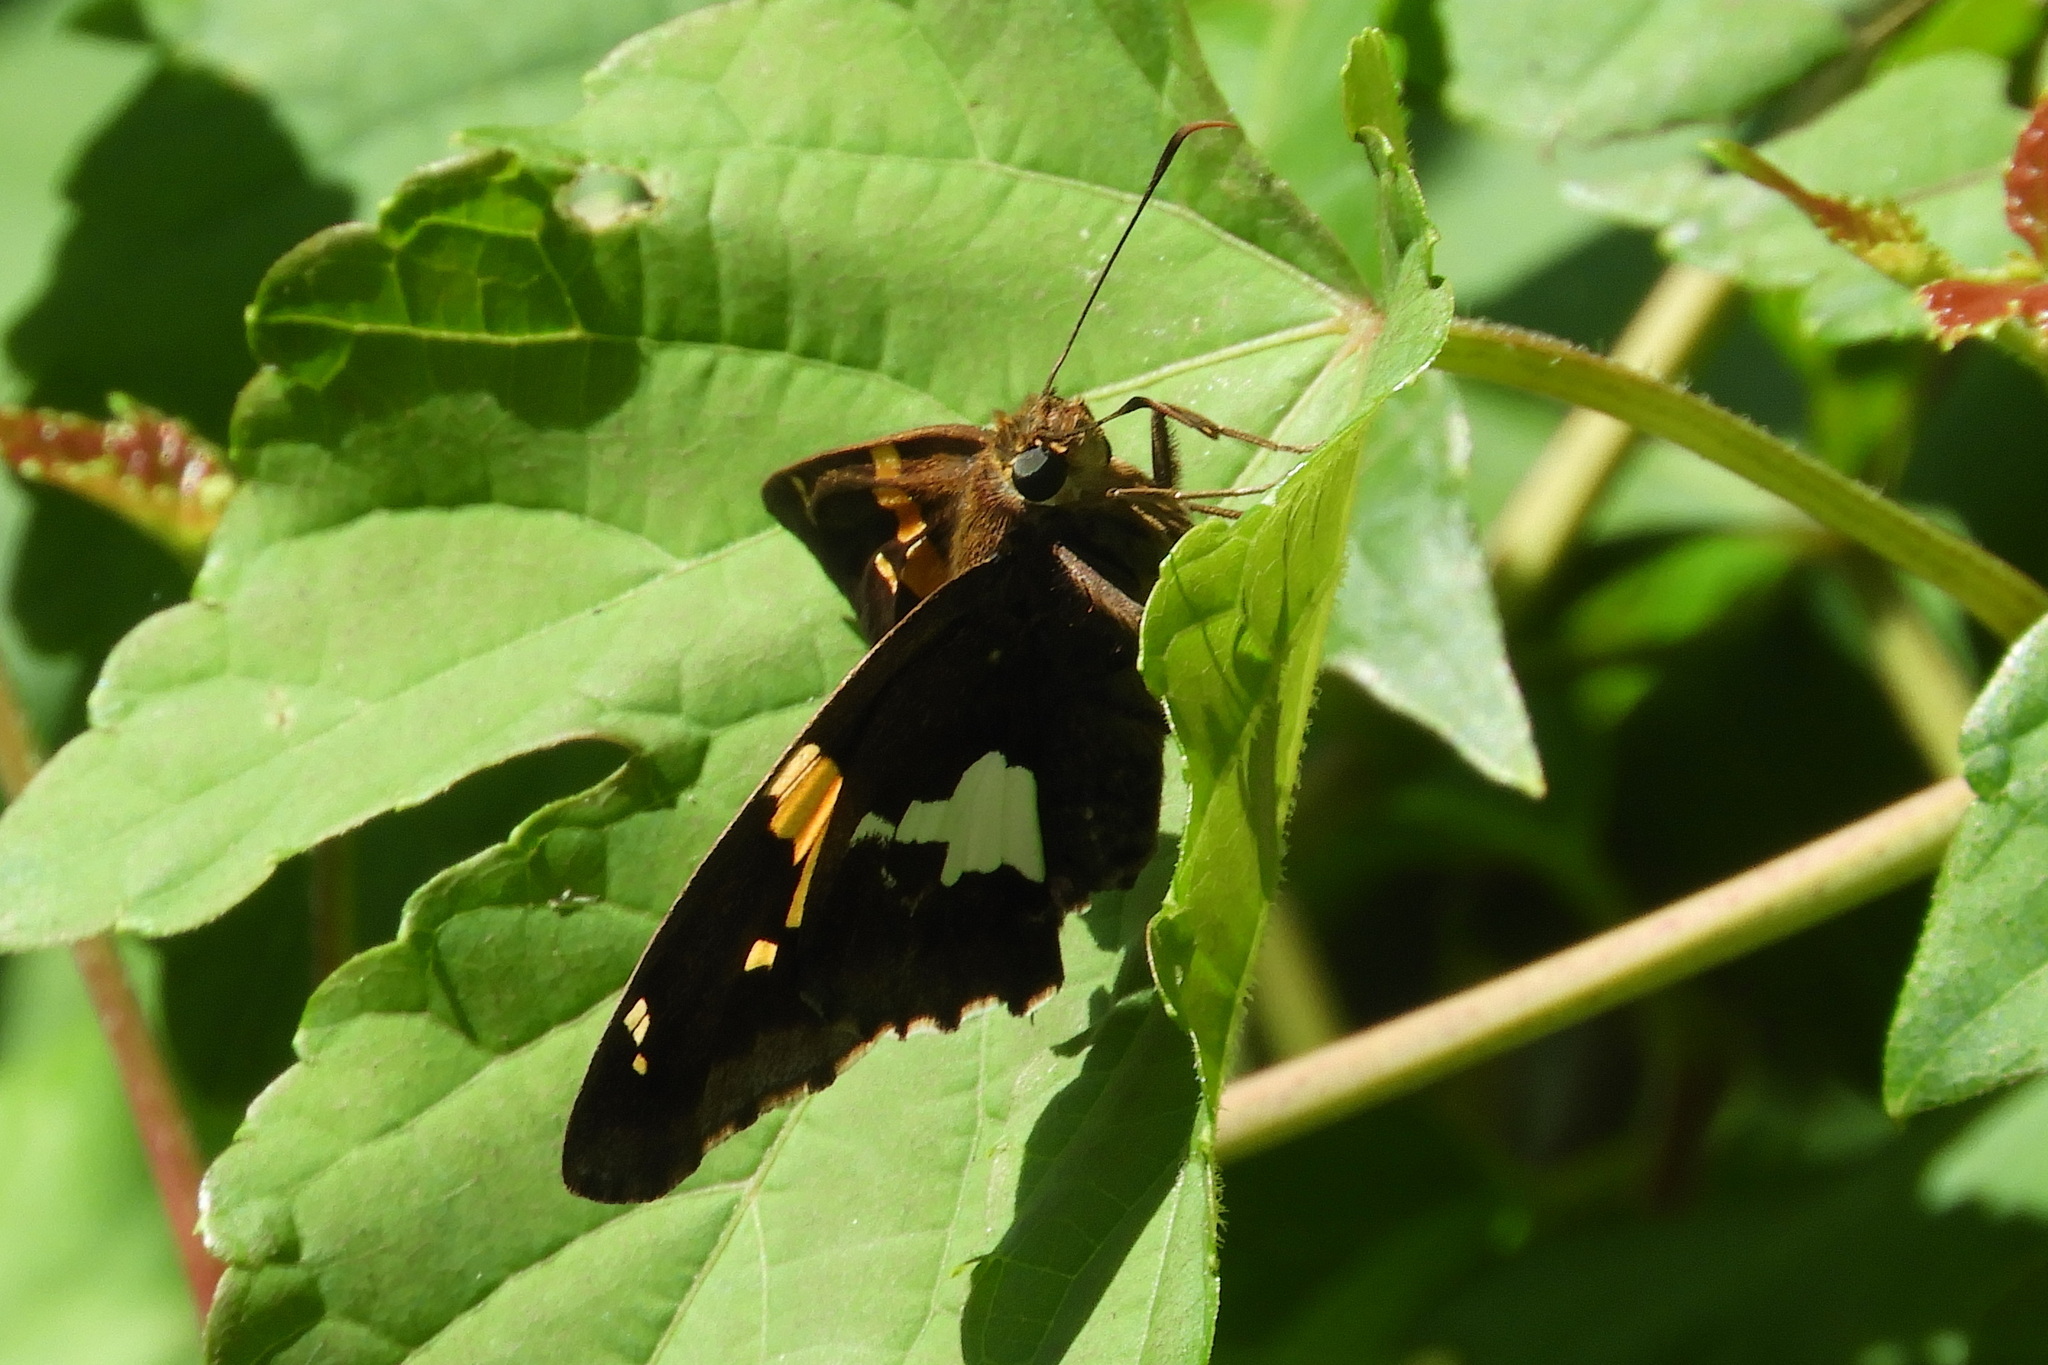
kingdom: Animalia
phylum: Arthropoda
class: Insecta
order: Lepidoptera
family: Hesperiidae
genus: Epargyreus
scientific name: Epargyreus clarus
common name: Silver-spotted skipper
